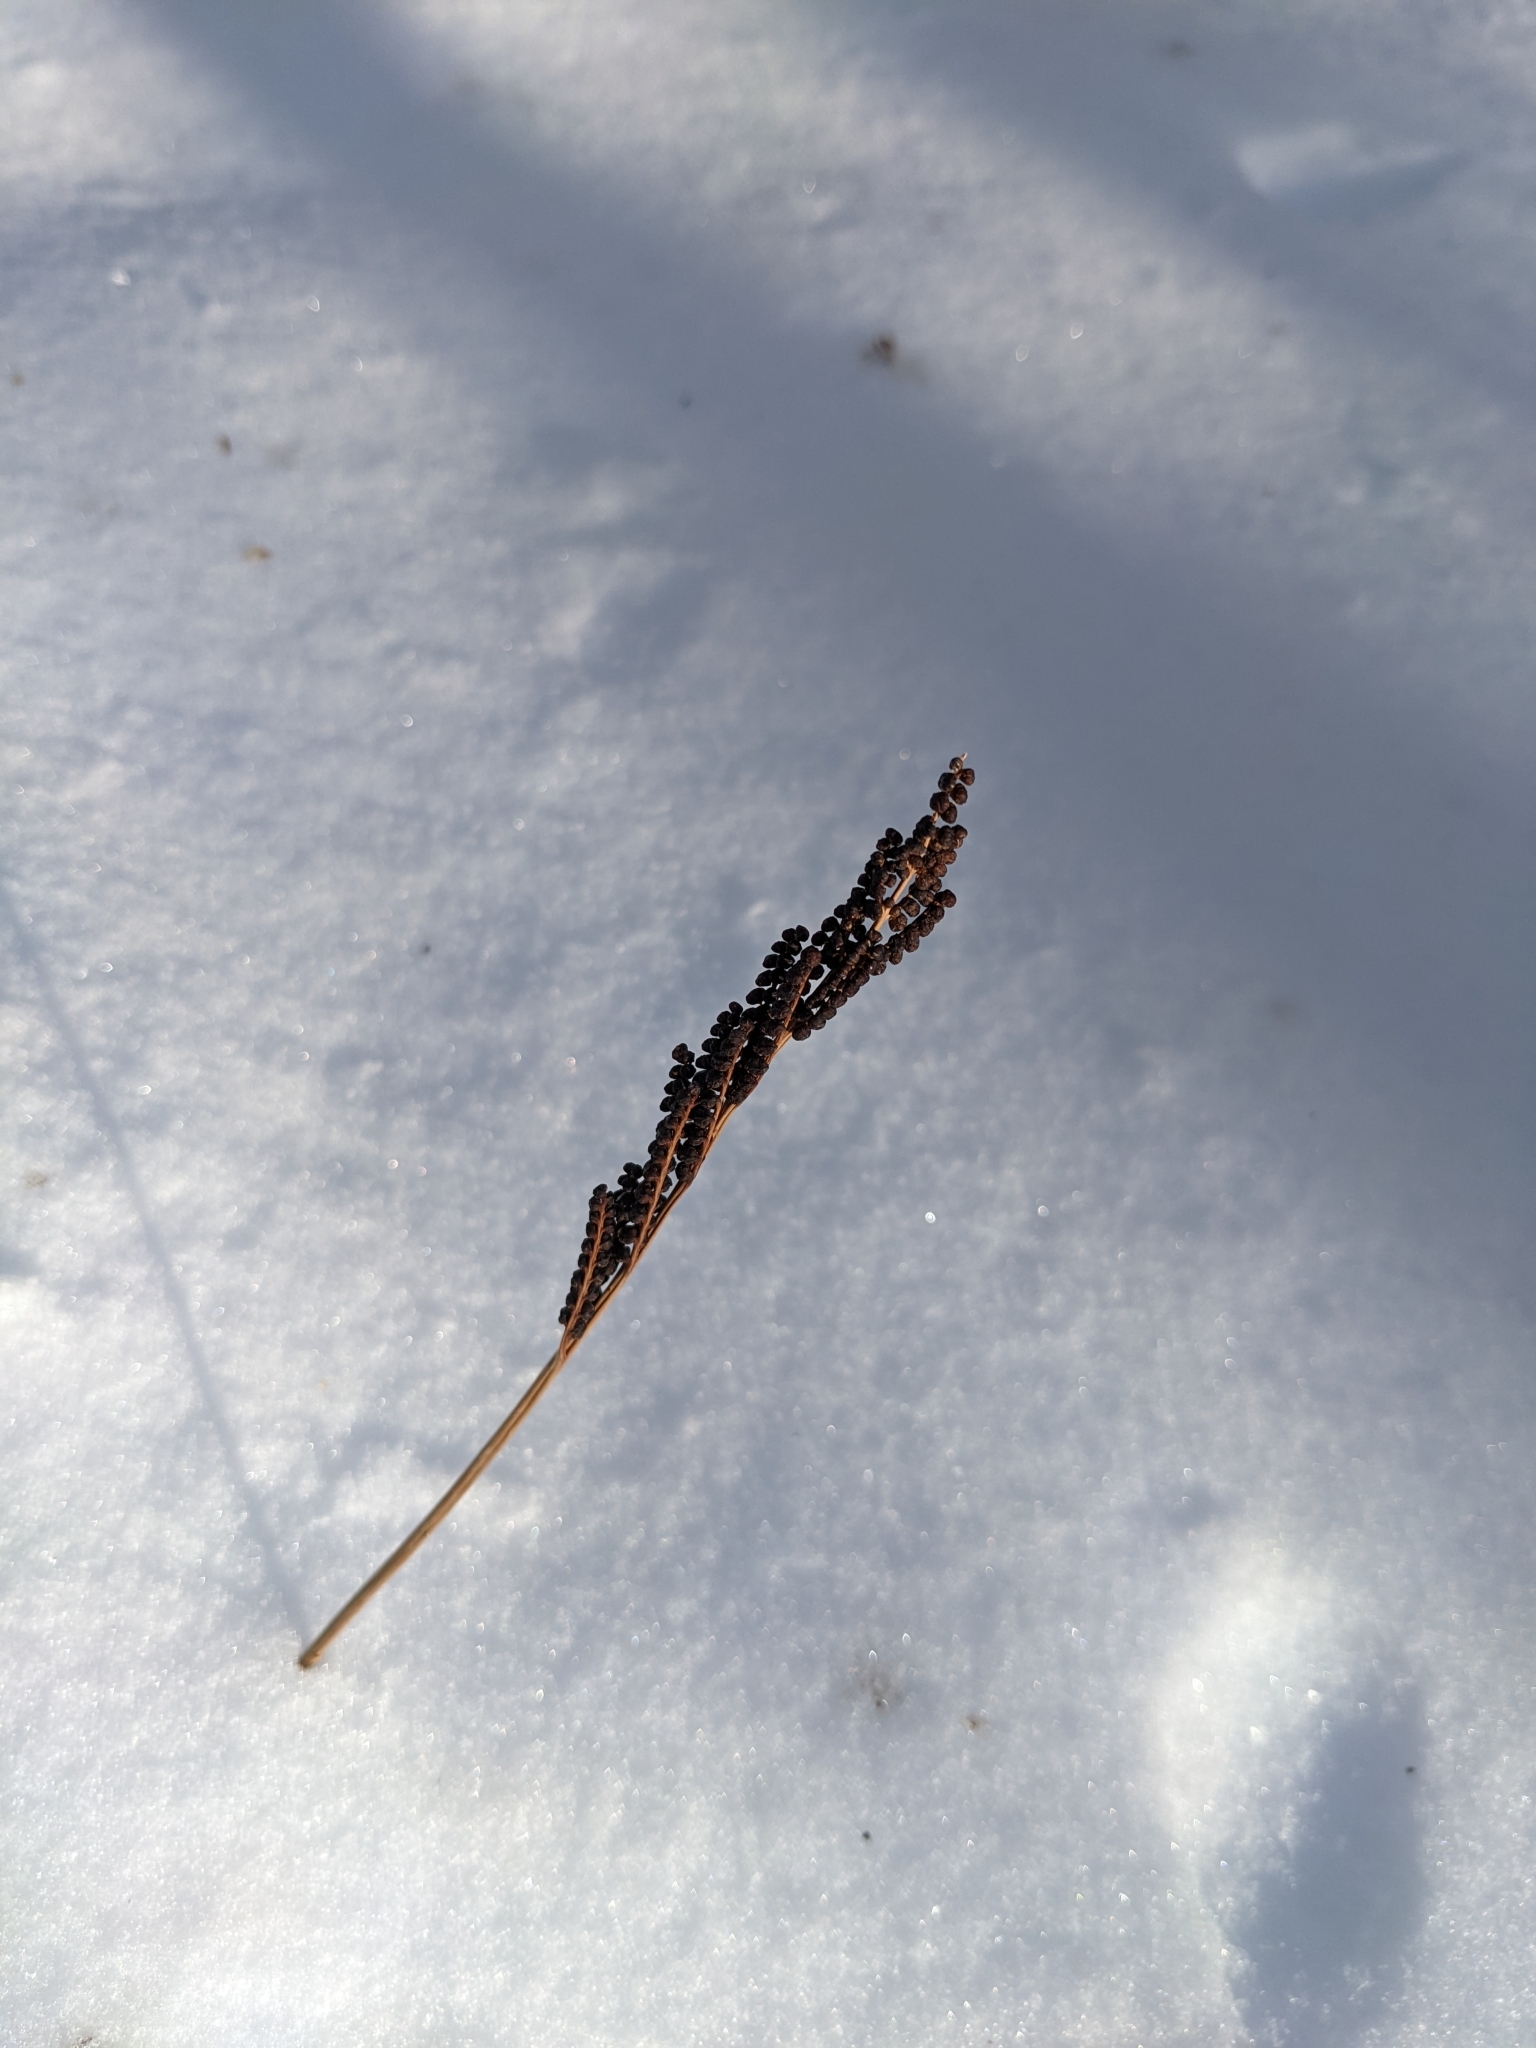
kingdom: Plantae
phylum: Tracheophyta
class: Polypodiopsida
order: Polypodiales
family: Onocleaceae
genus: Onoclea
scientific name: Onoclea sensibilis
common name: Sensitive fern
